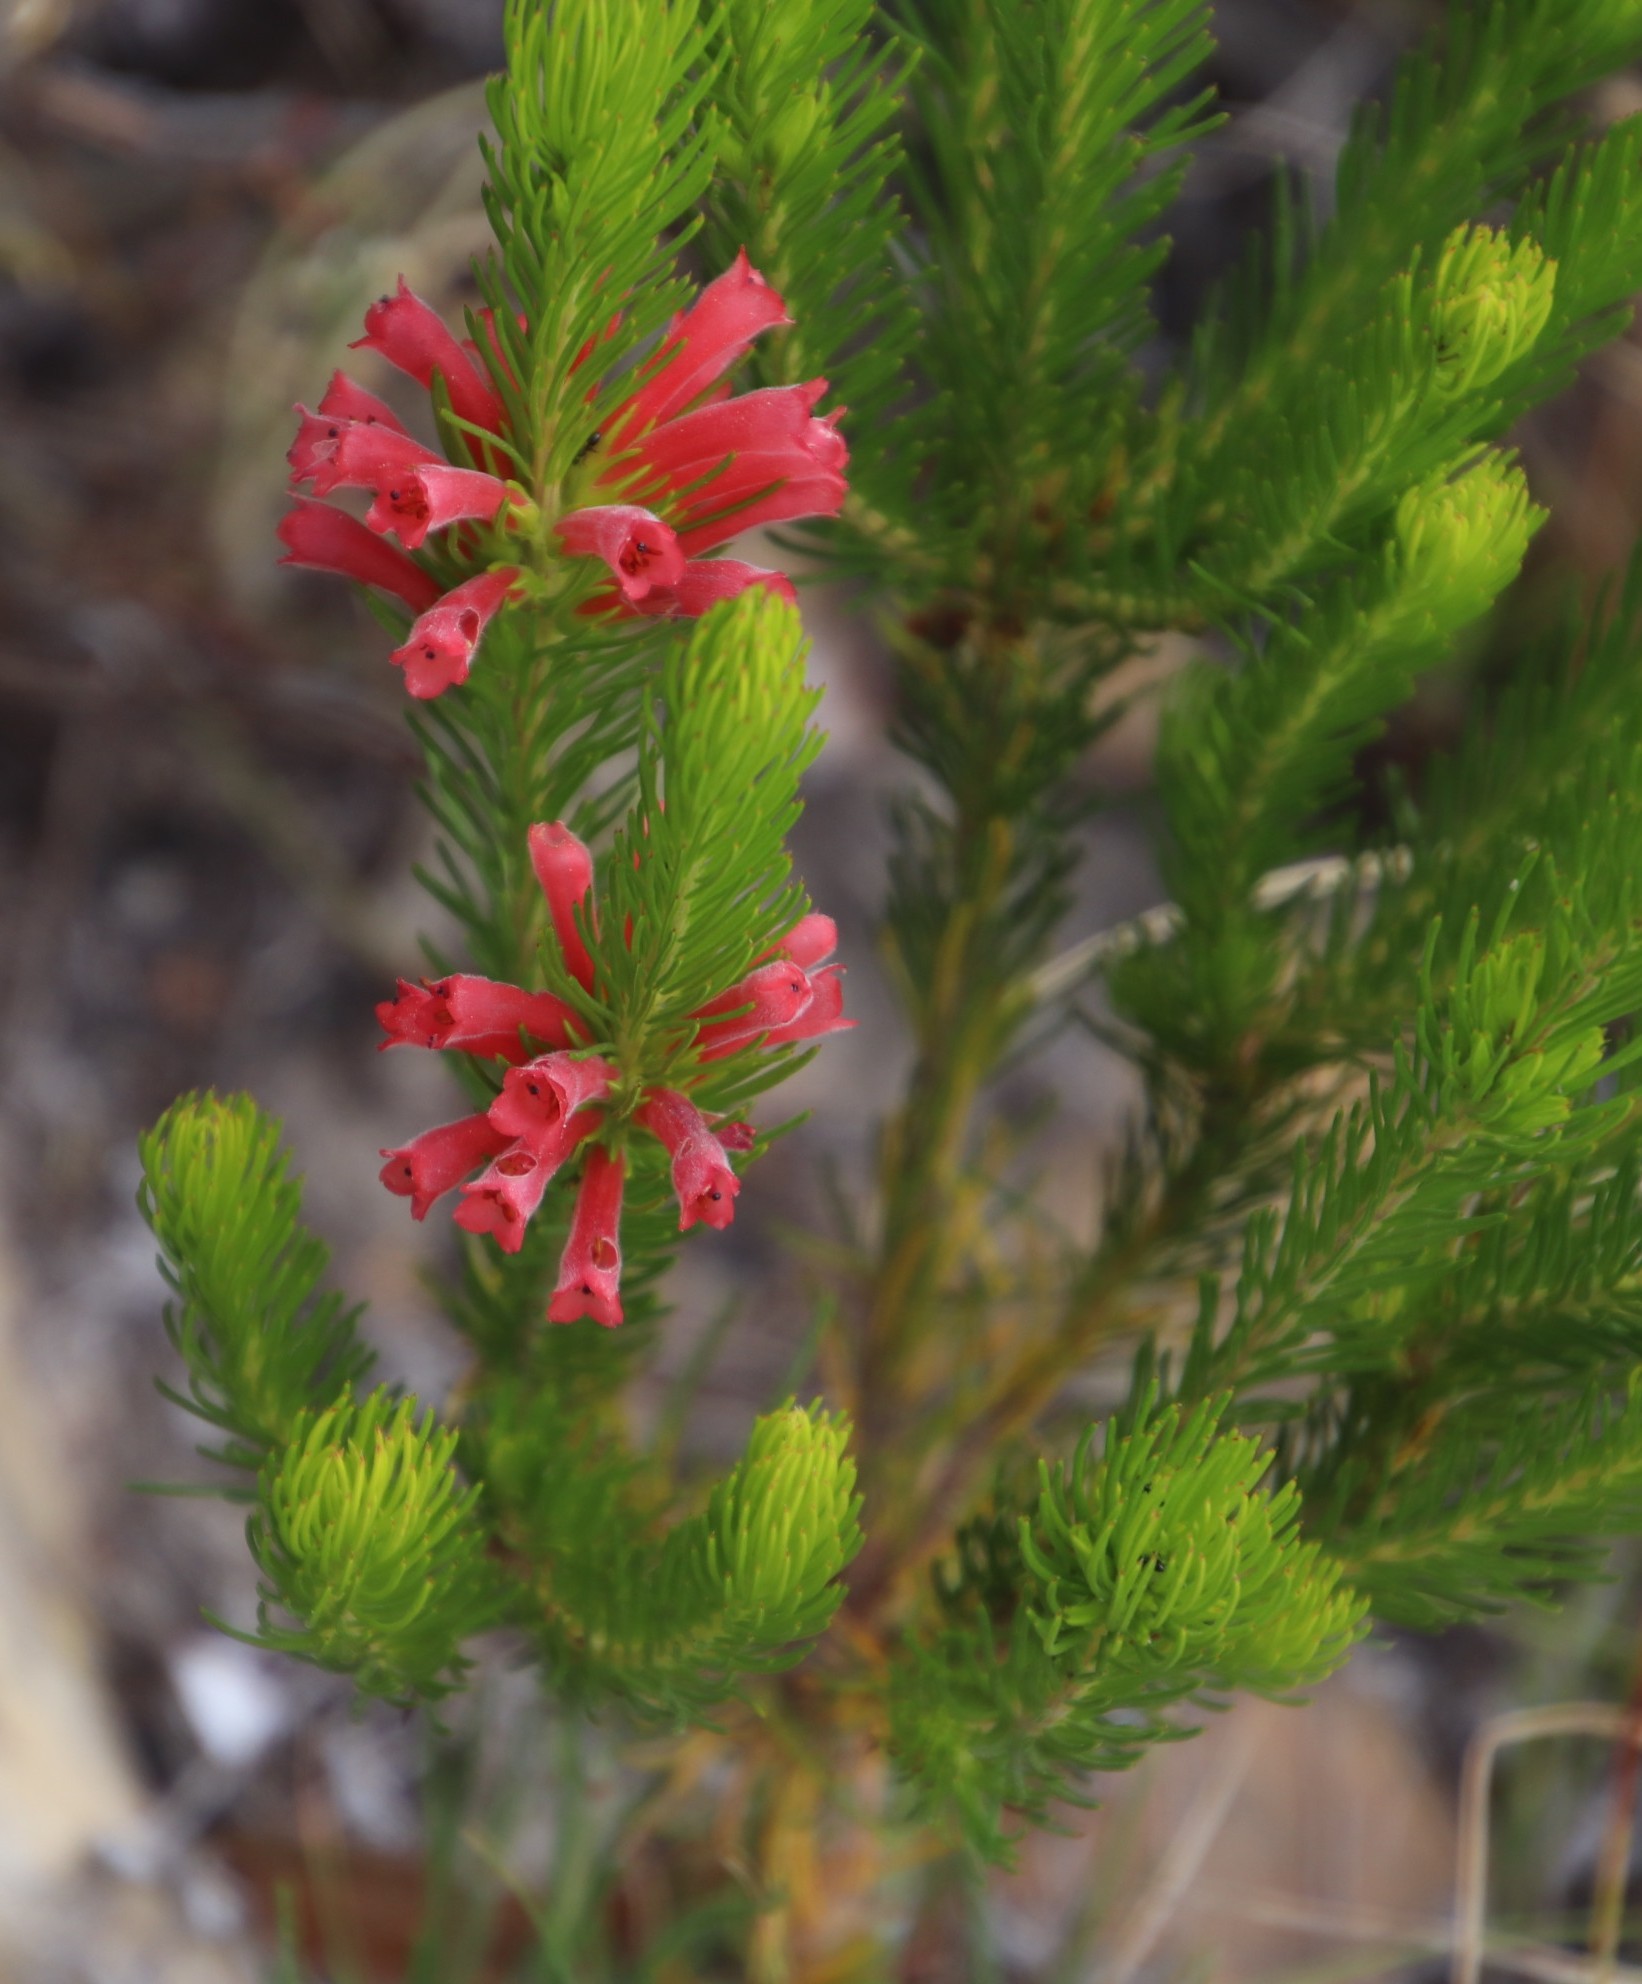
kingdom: Plantae
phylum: Tracheophyta
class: Magnoliopsida
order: Ericales
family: Ericaceae
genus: Erica
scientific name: Erica vestita
